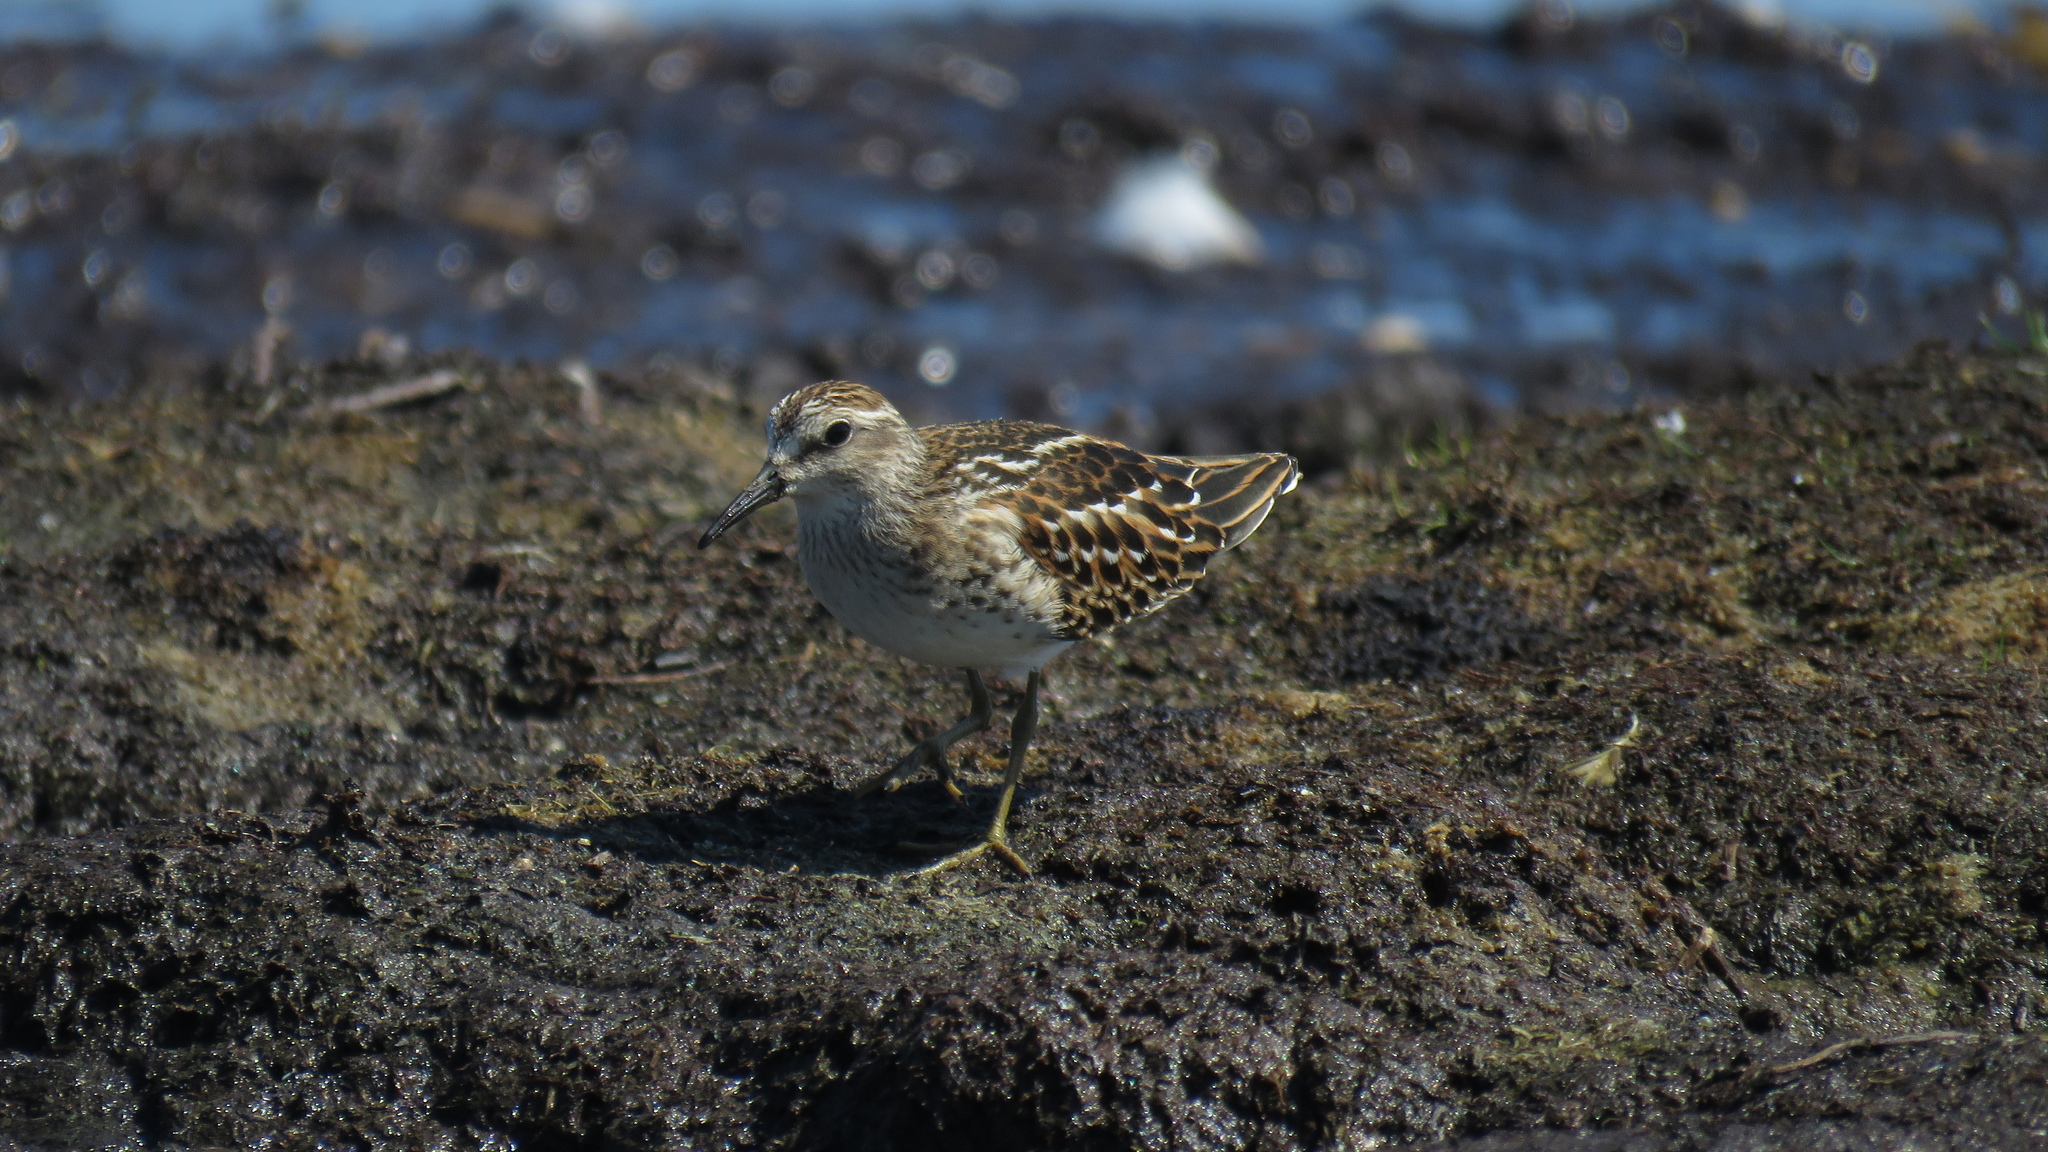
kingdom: Animalia
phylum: Chordata
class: Aves
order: Charadriiformes
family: Scolopacidae
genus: Calidris
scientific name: Calidris minutilla
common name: Least sandpiper
